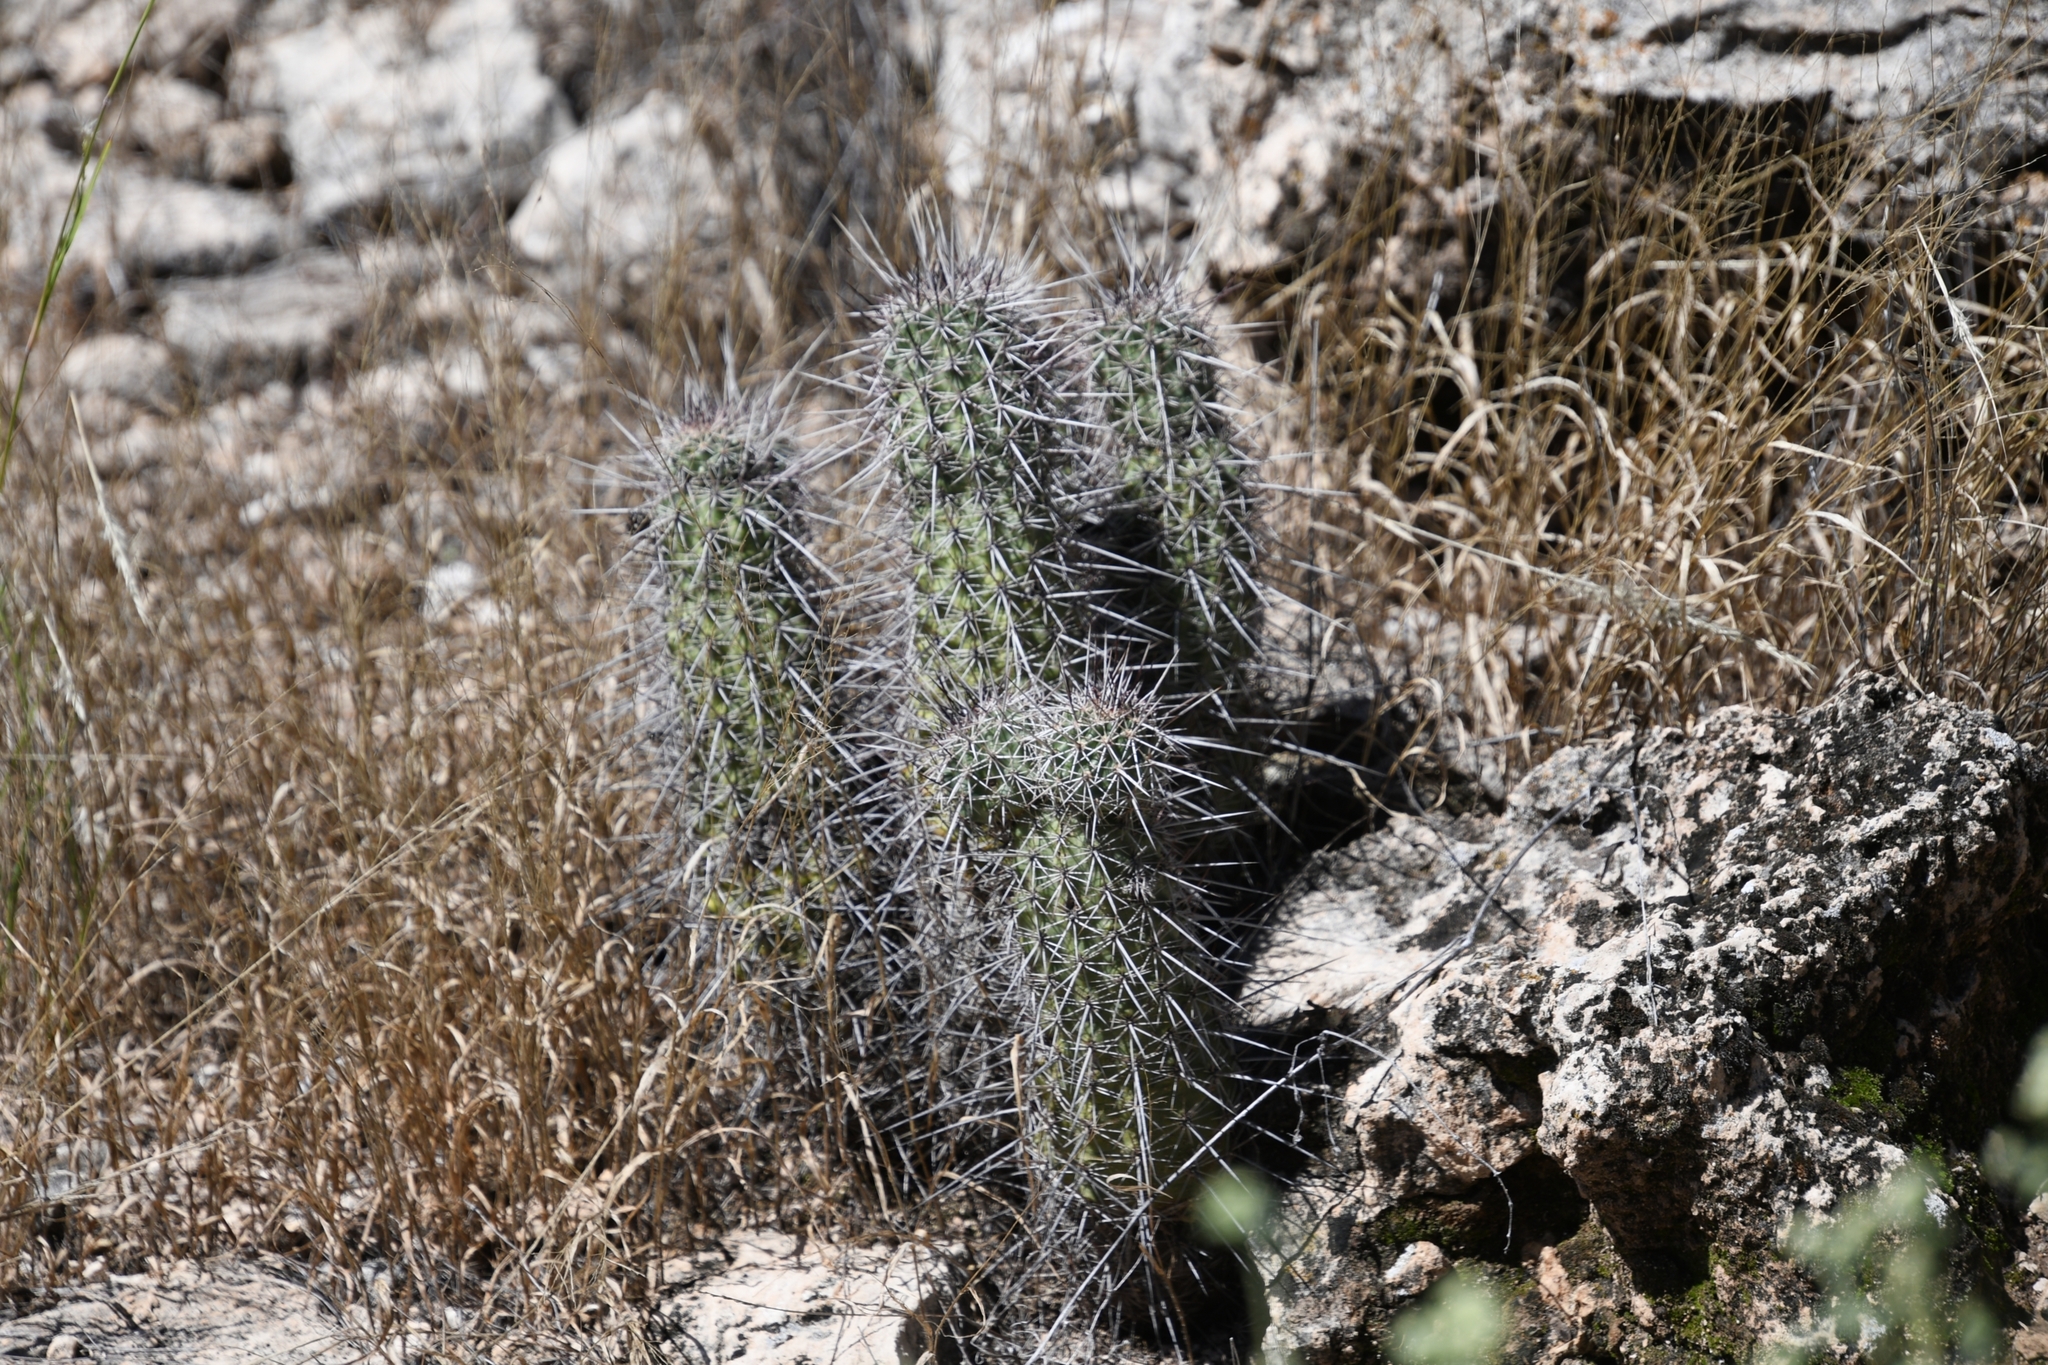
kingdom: Plantae
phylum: Tracheophyta
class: Magnoliopsida
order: Caryophyllales
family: Cactaceae
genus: Echinocereus
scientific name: Echinocereus fasciculatus
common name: Bundle hedgehog
